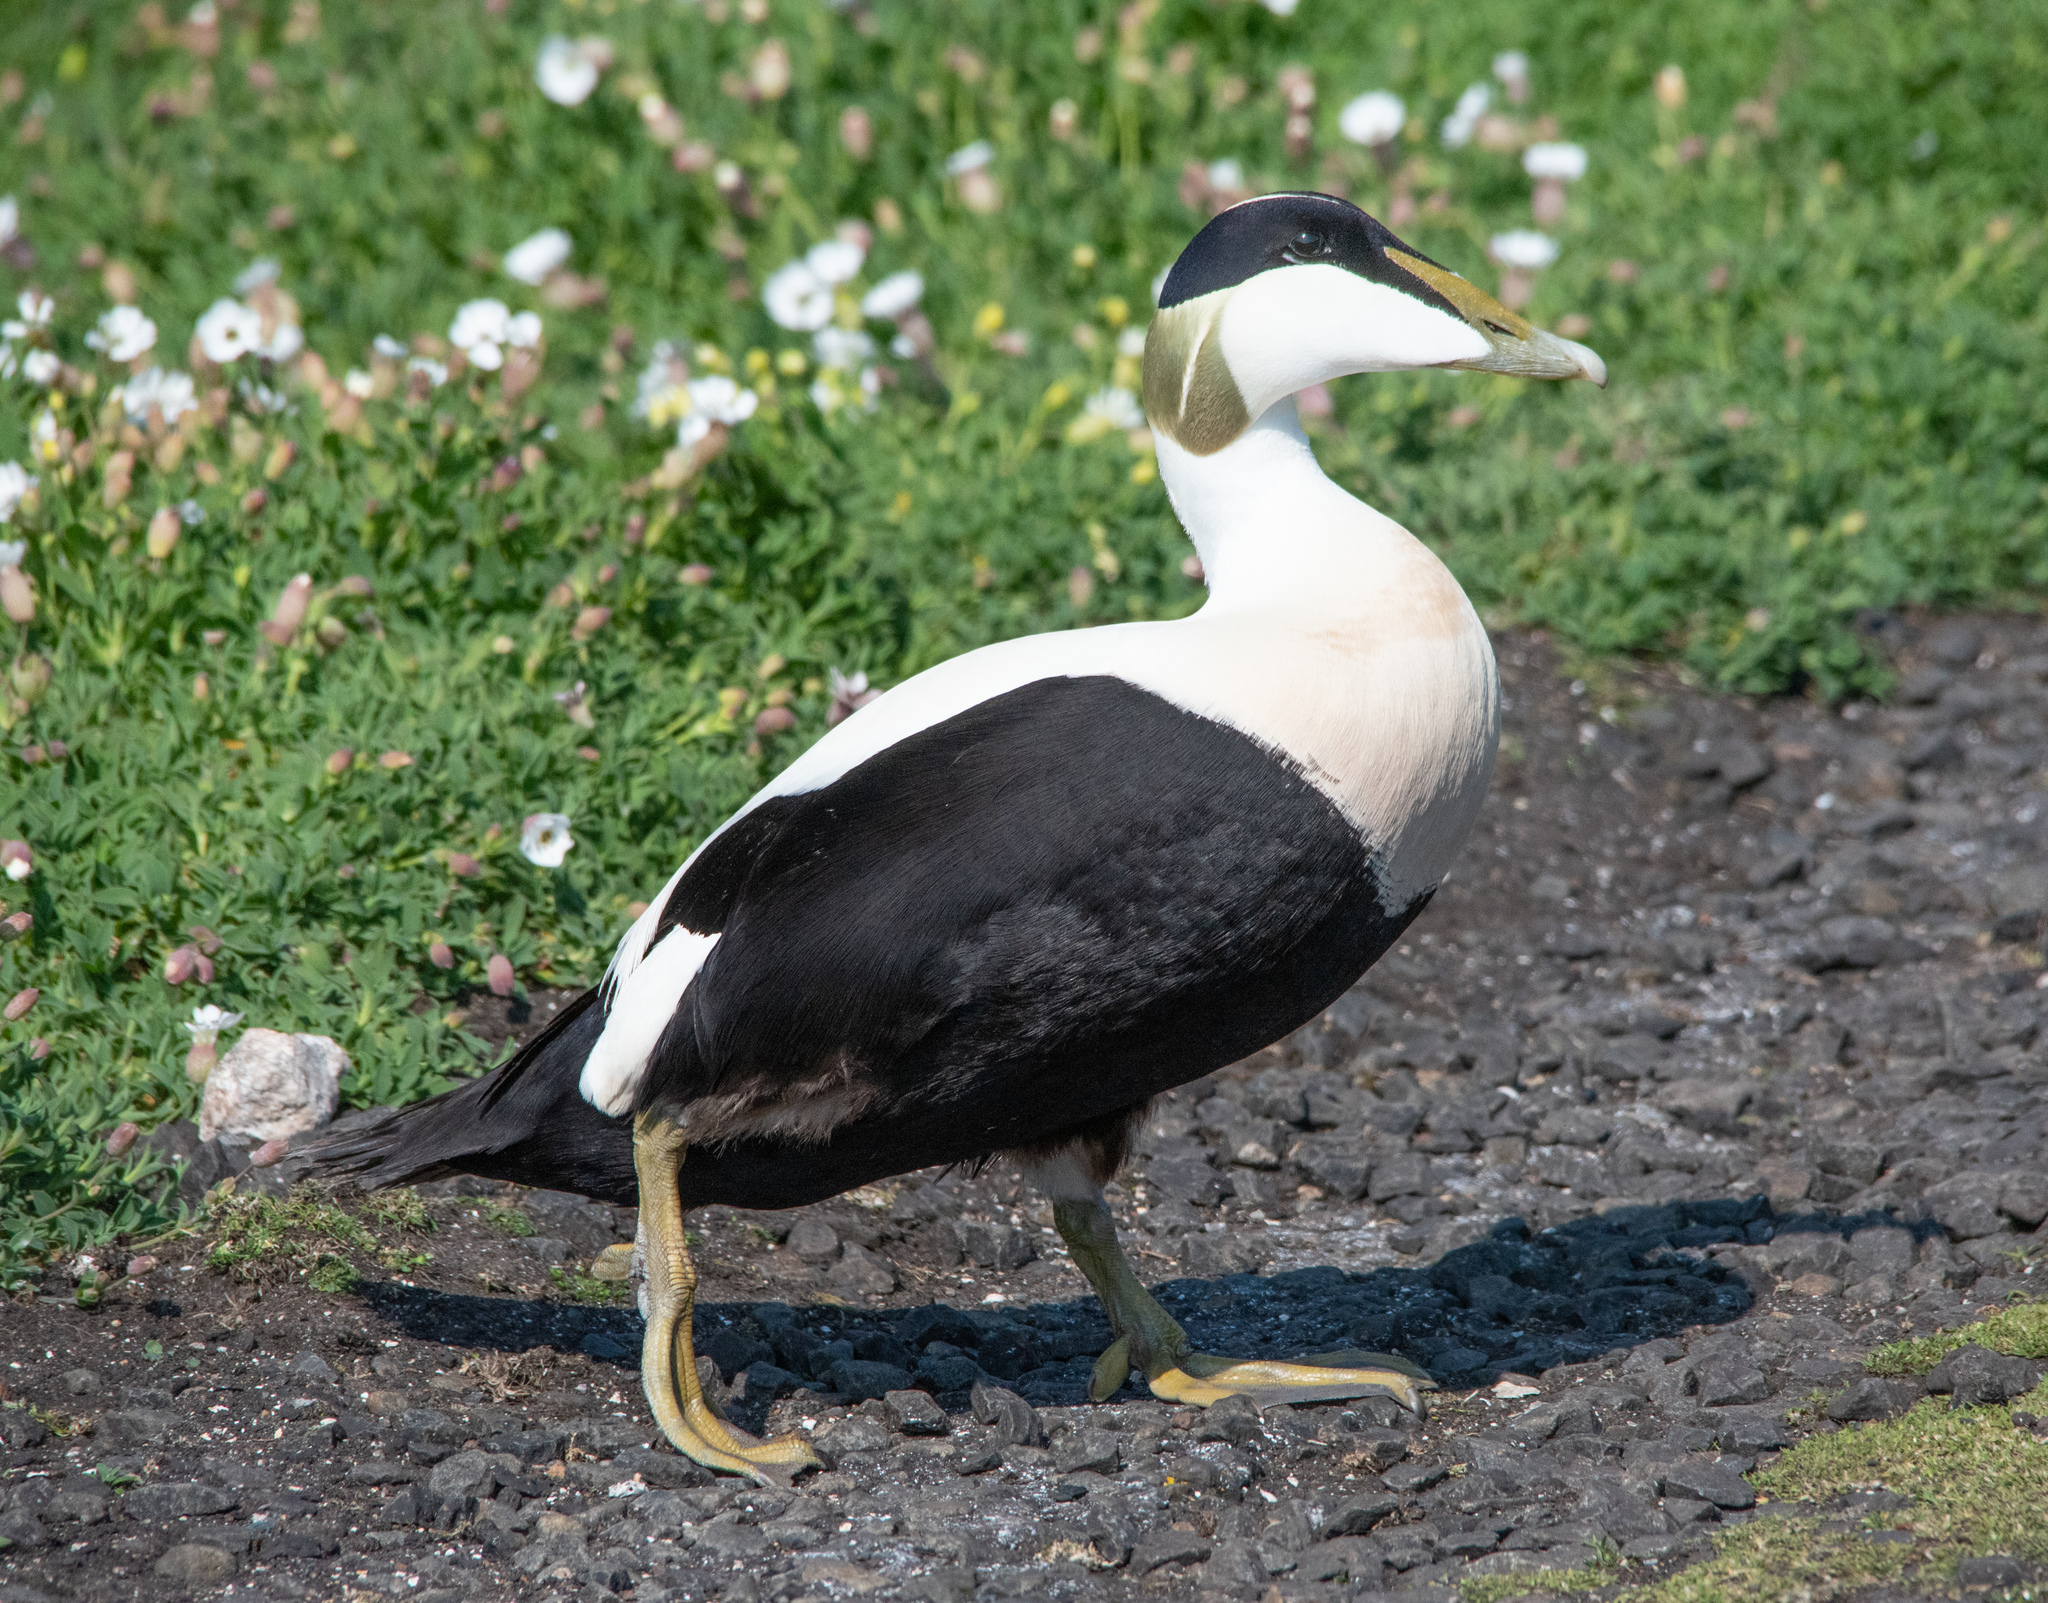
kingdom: Animalia
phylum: Chordata
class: Aves
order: Anseriformes
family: Anatidae
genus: Somateria
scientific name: Somateria mollissima
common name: Common eider
